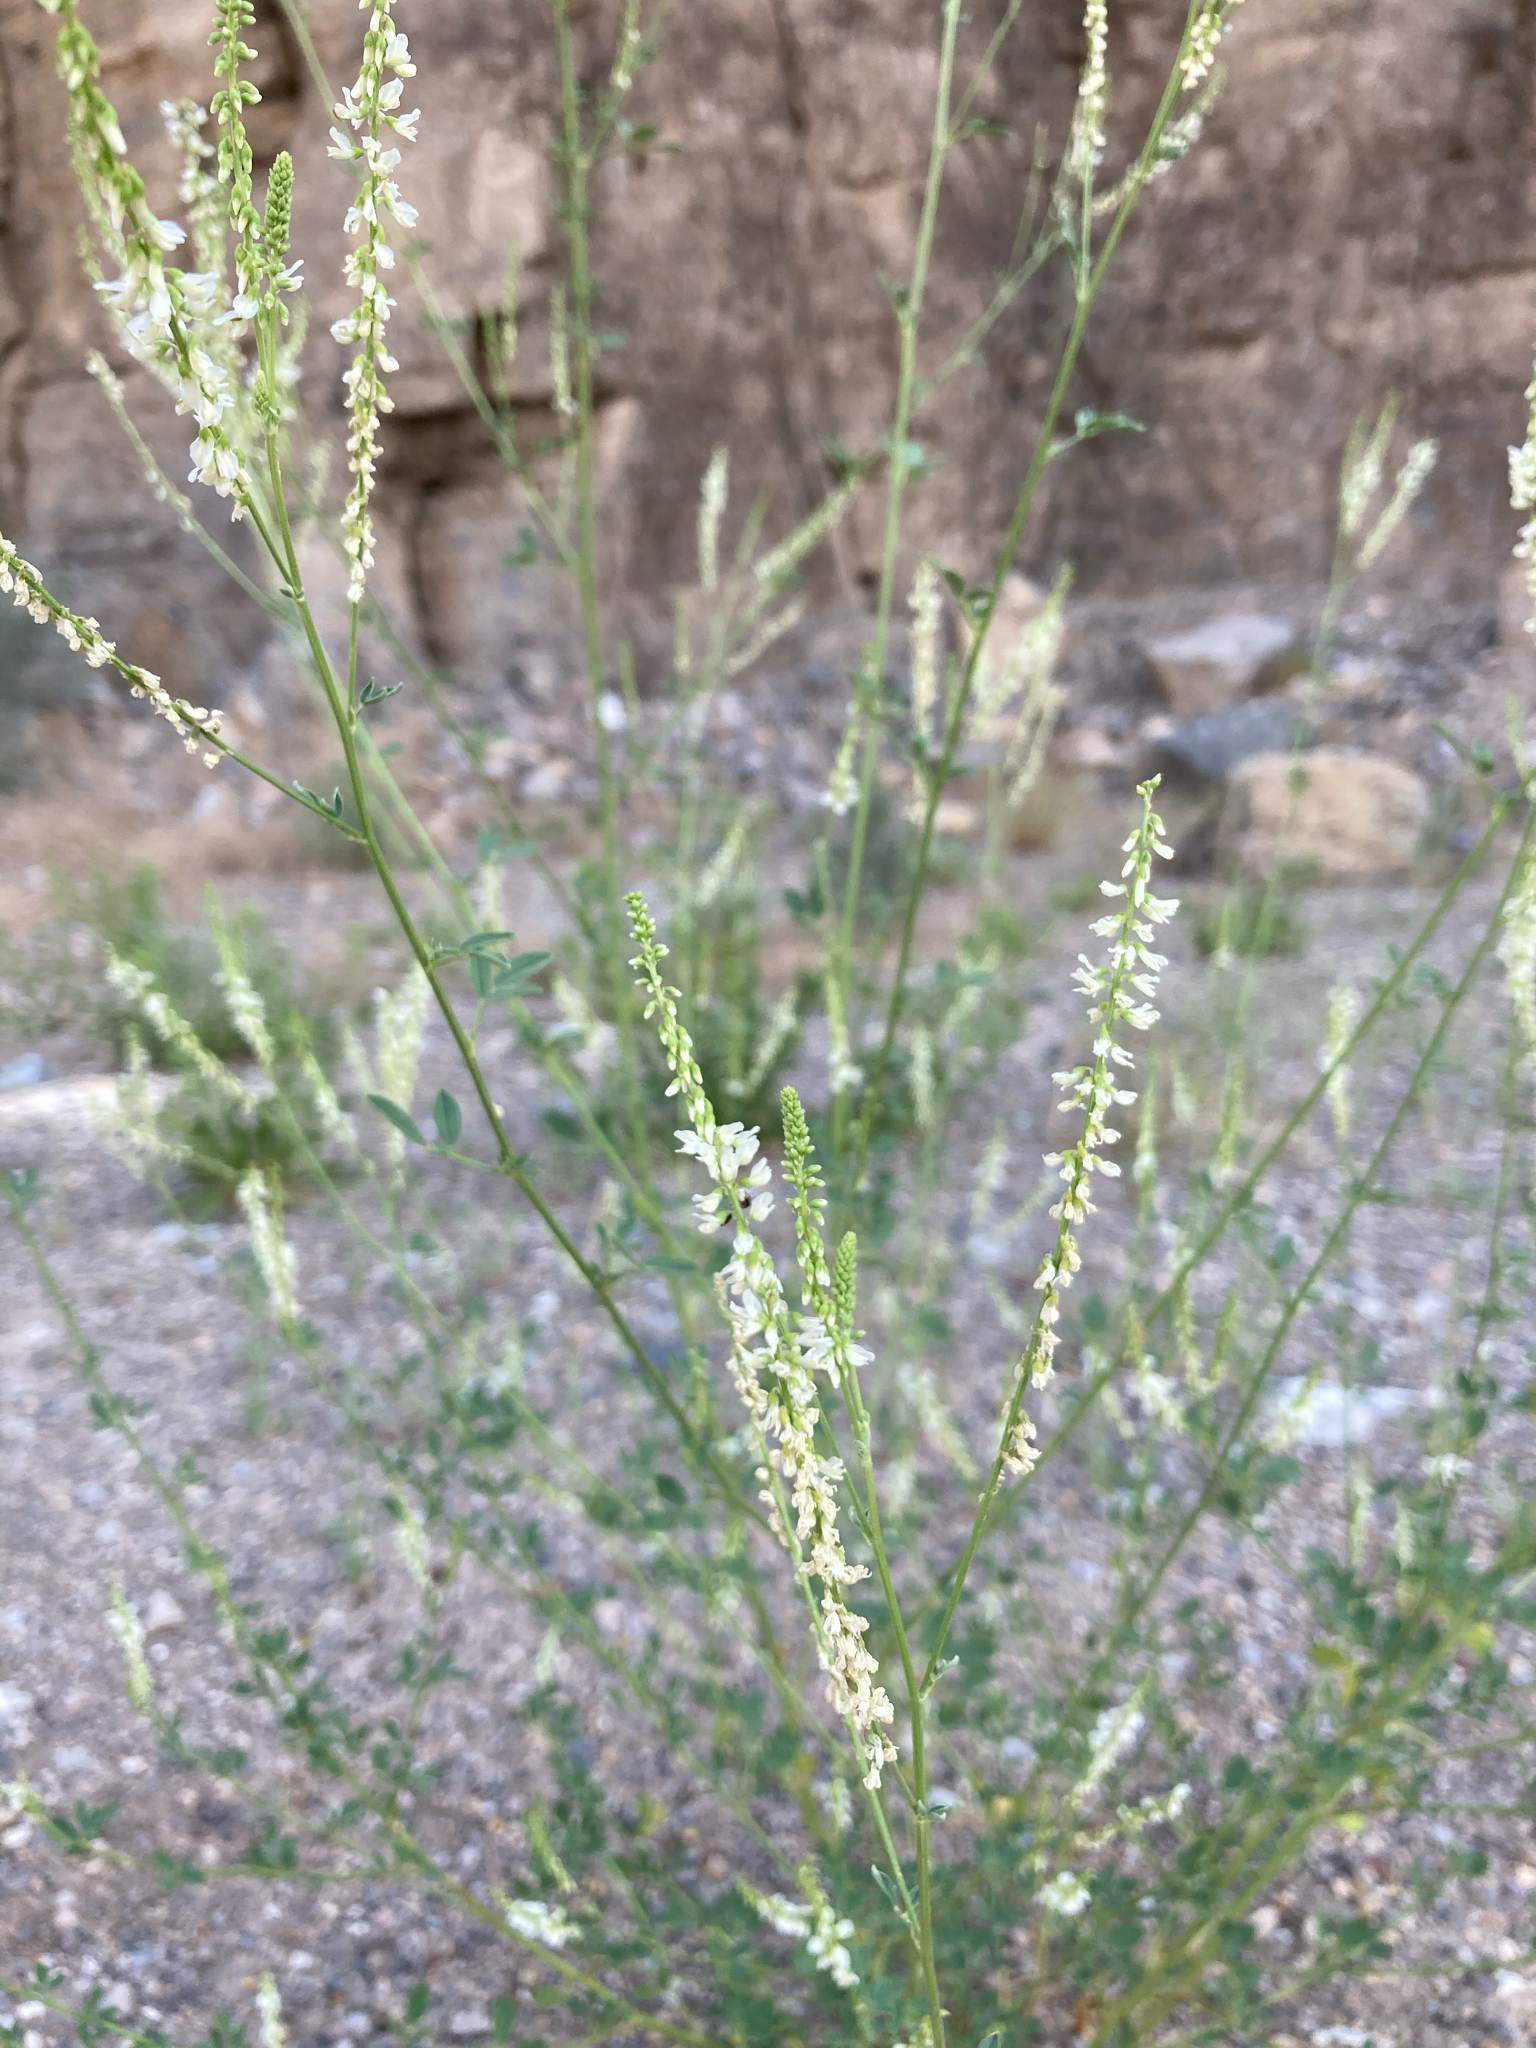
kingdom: Plantae
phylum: Tracheophyta
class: Magnoliopsida
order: Fabales
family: Fabaceae
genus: Melilotus
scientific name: Melilotus albus
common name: White melilot
